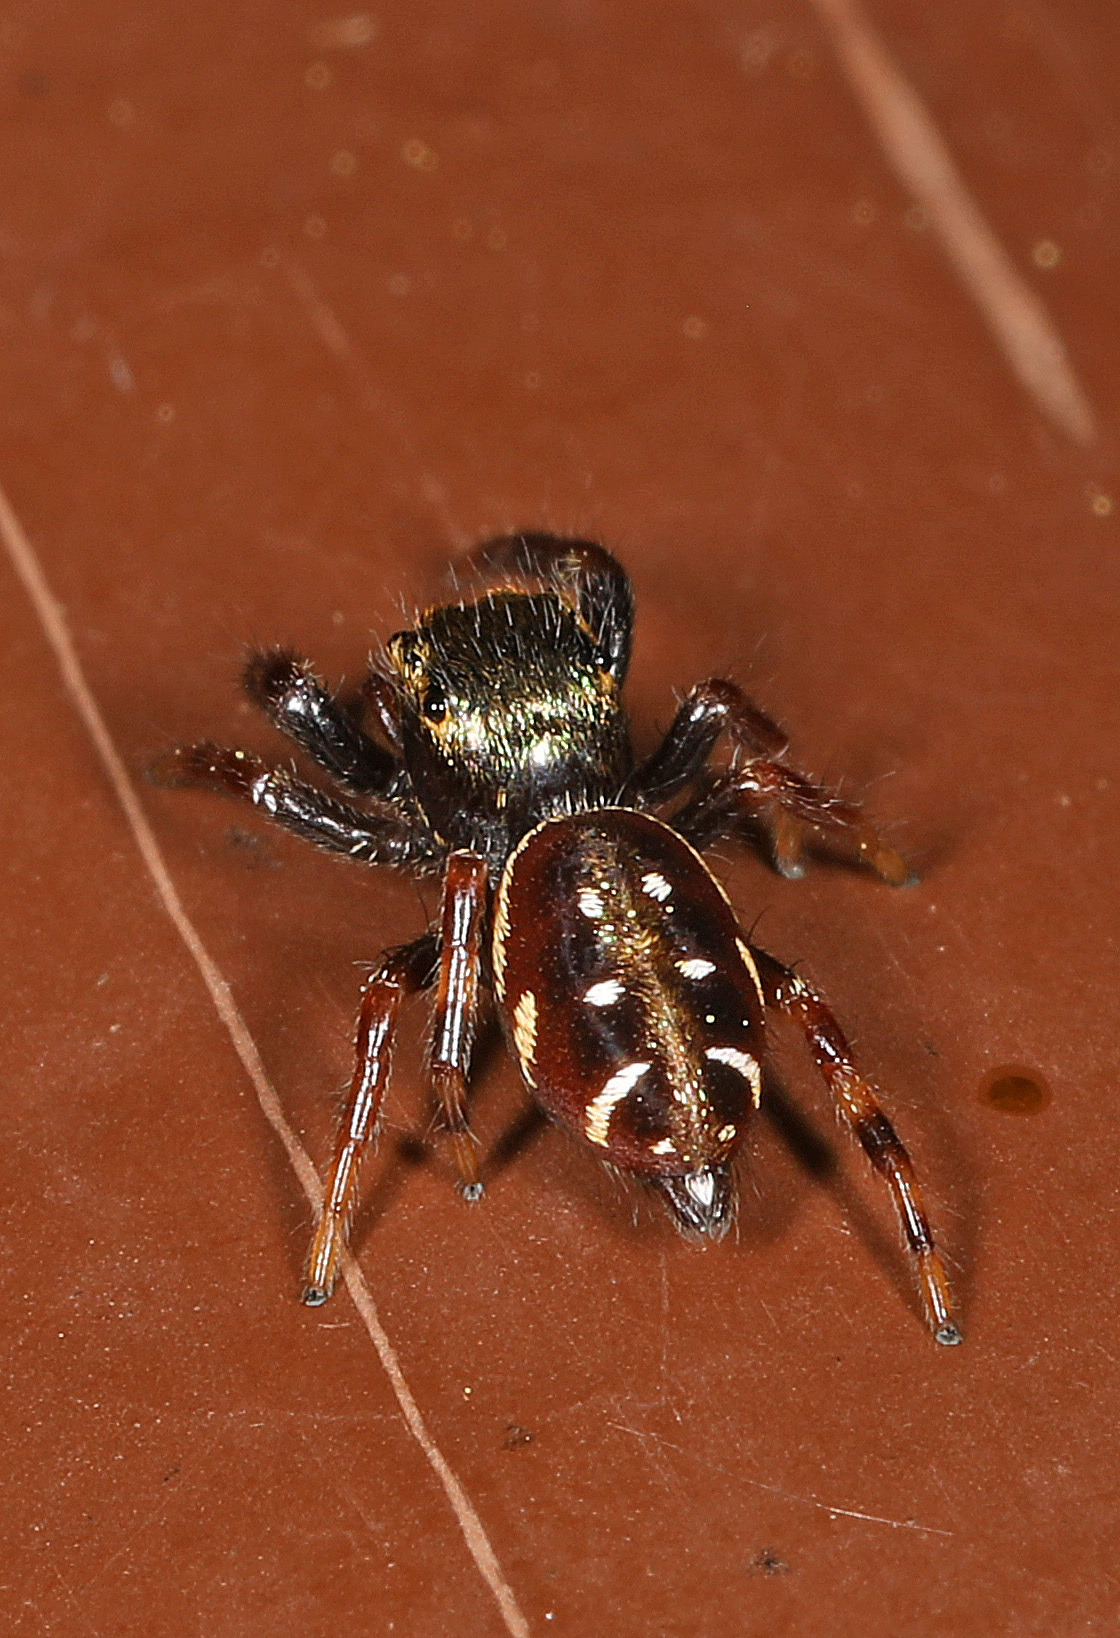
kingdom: Animalia
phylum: Arthropoda
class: Arachnida
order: Araneae
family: Salticidae
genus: Paraphidippus
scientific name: Paraphidippus aurantius
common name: Jumping spiders
